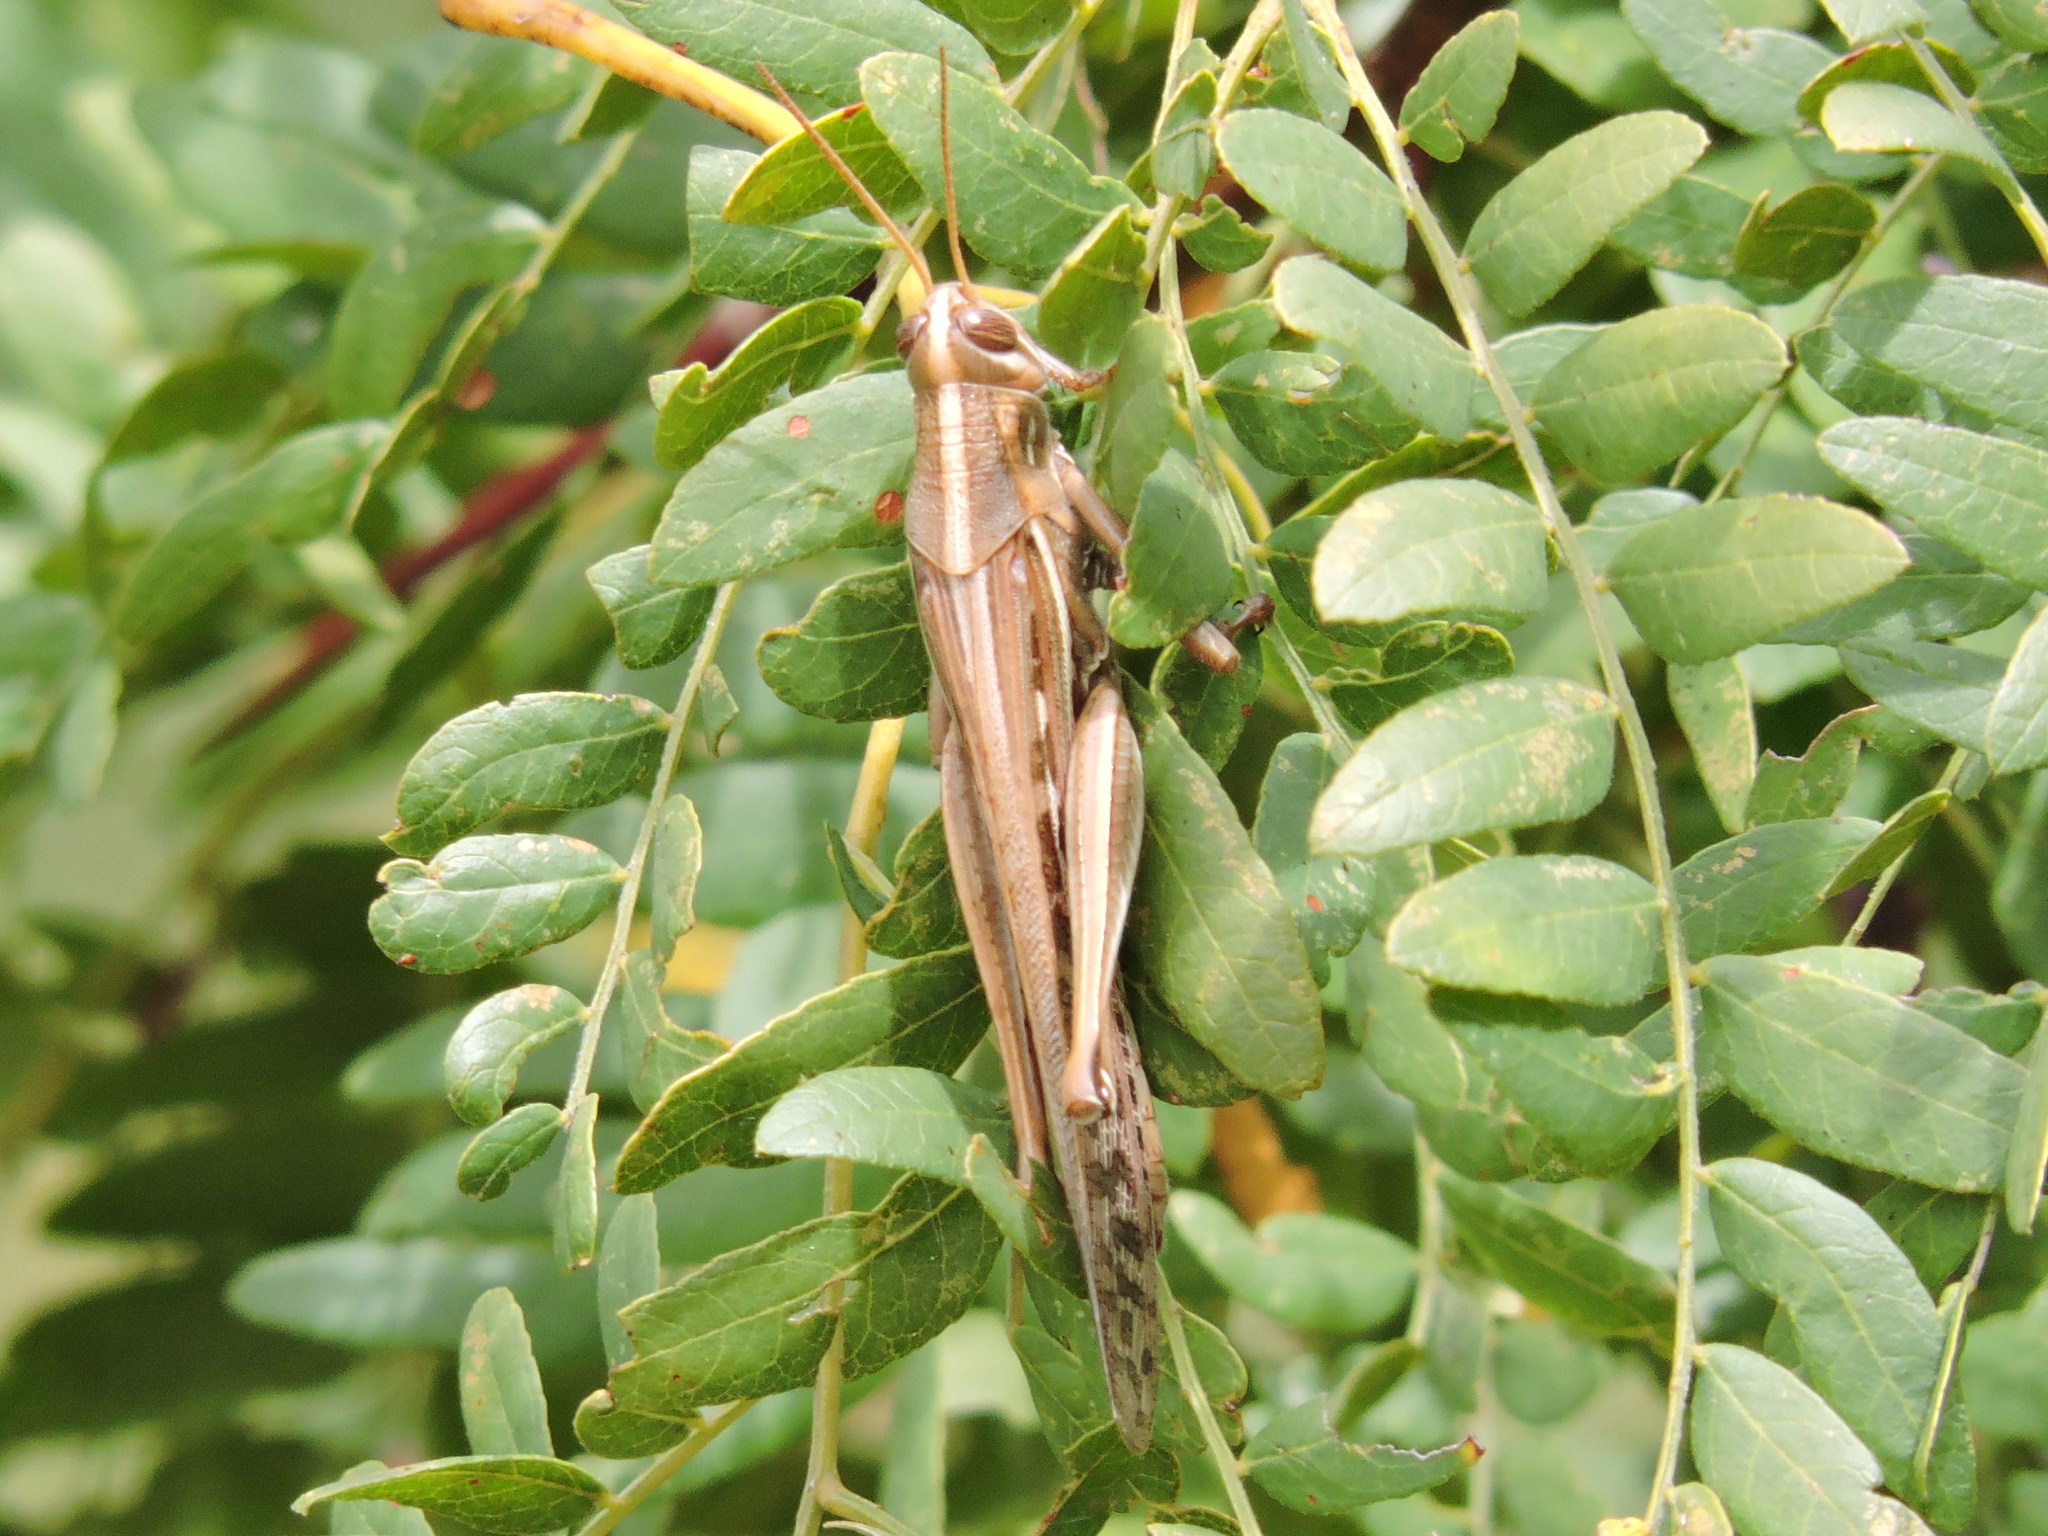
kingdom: Animalia
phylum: Arthropoda
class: Insecta
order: Orthoptera
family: Acrididae
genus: Schistocerca
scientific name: Schistocerca americana
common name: American bird locust
